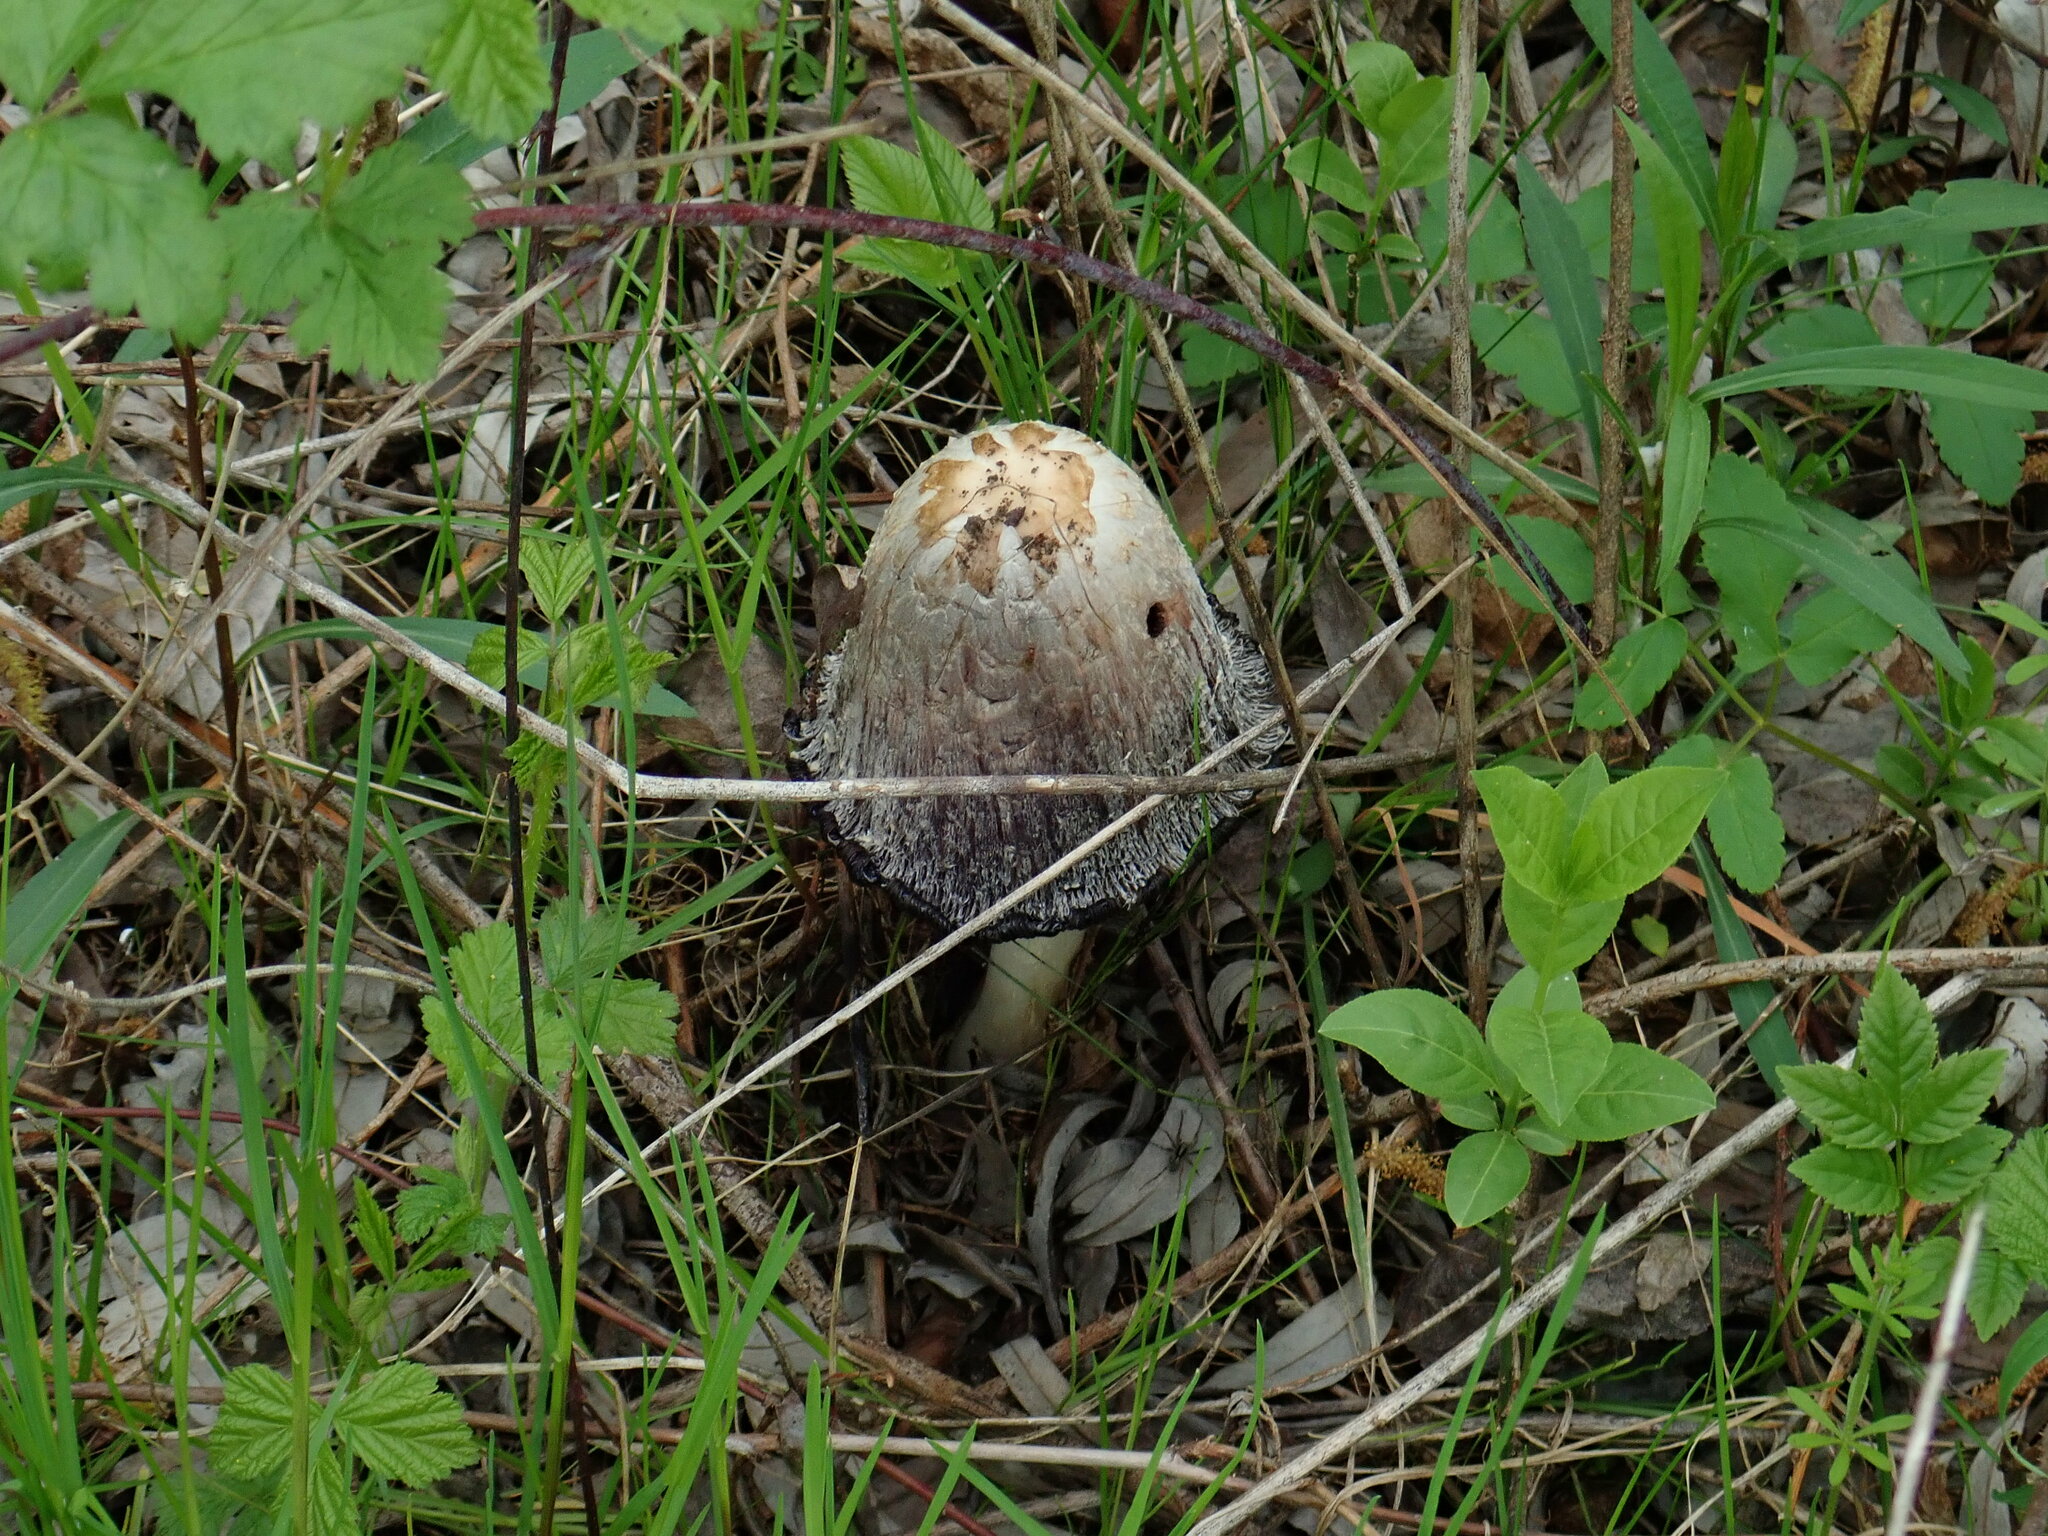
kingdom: Fungi
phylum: Basidiomycota
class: Agaricomycetes
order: Agaricales
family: Agaricaceae
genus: Coprinus
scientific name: Coprinus comatus
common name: Lawyer's wig
